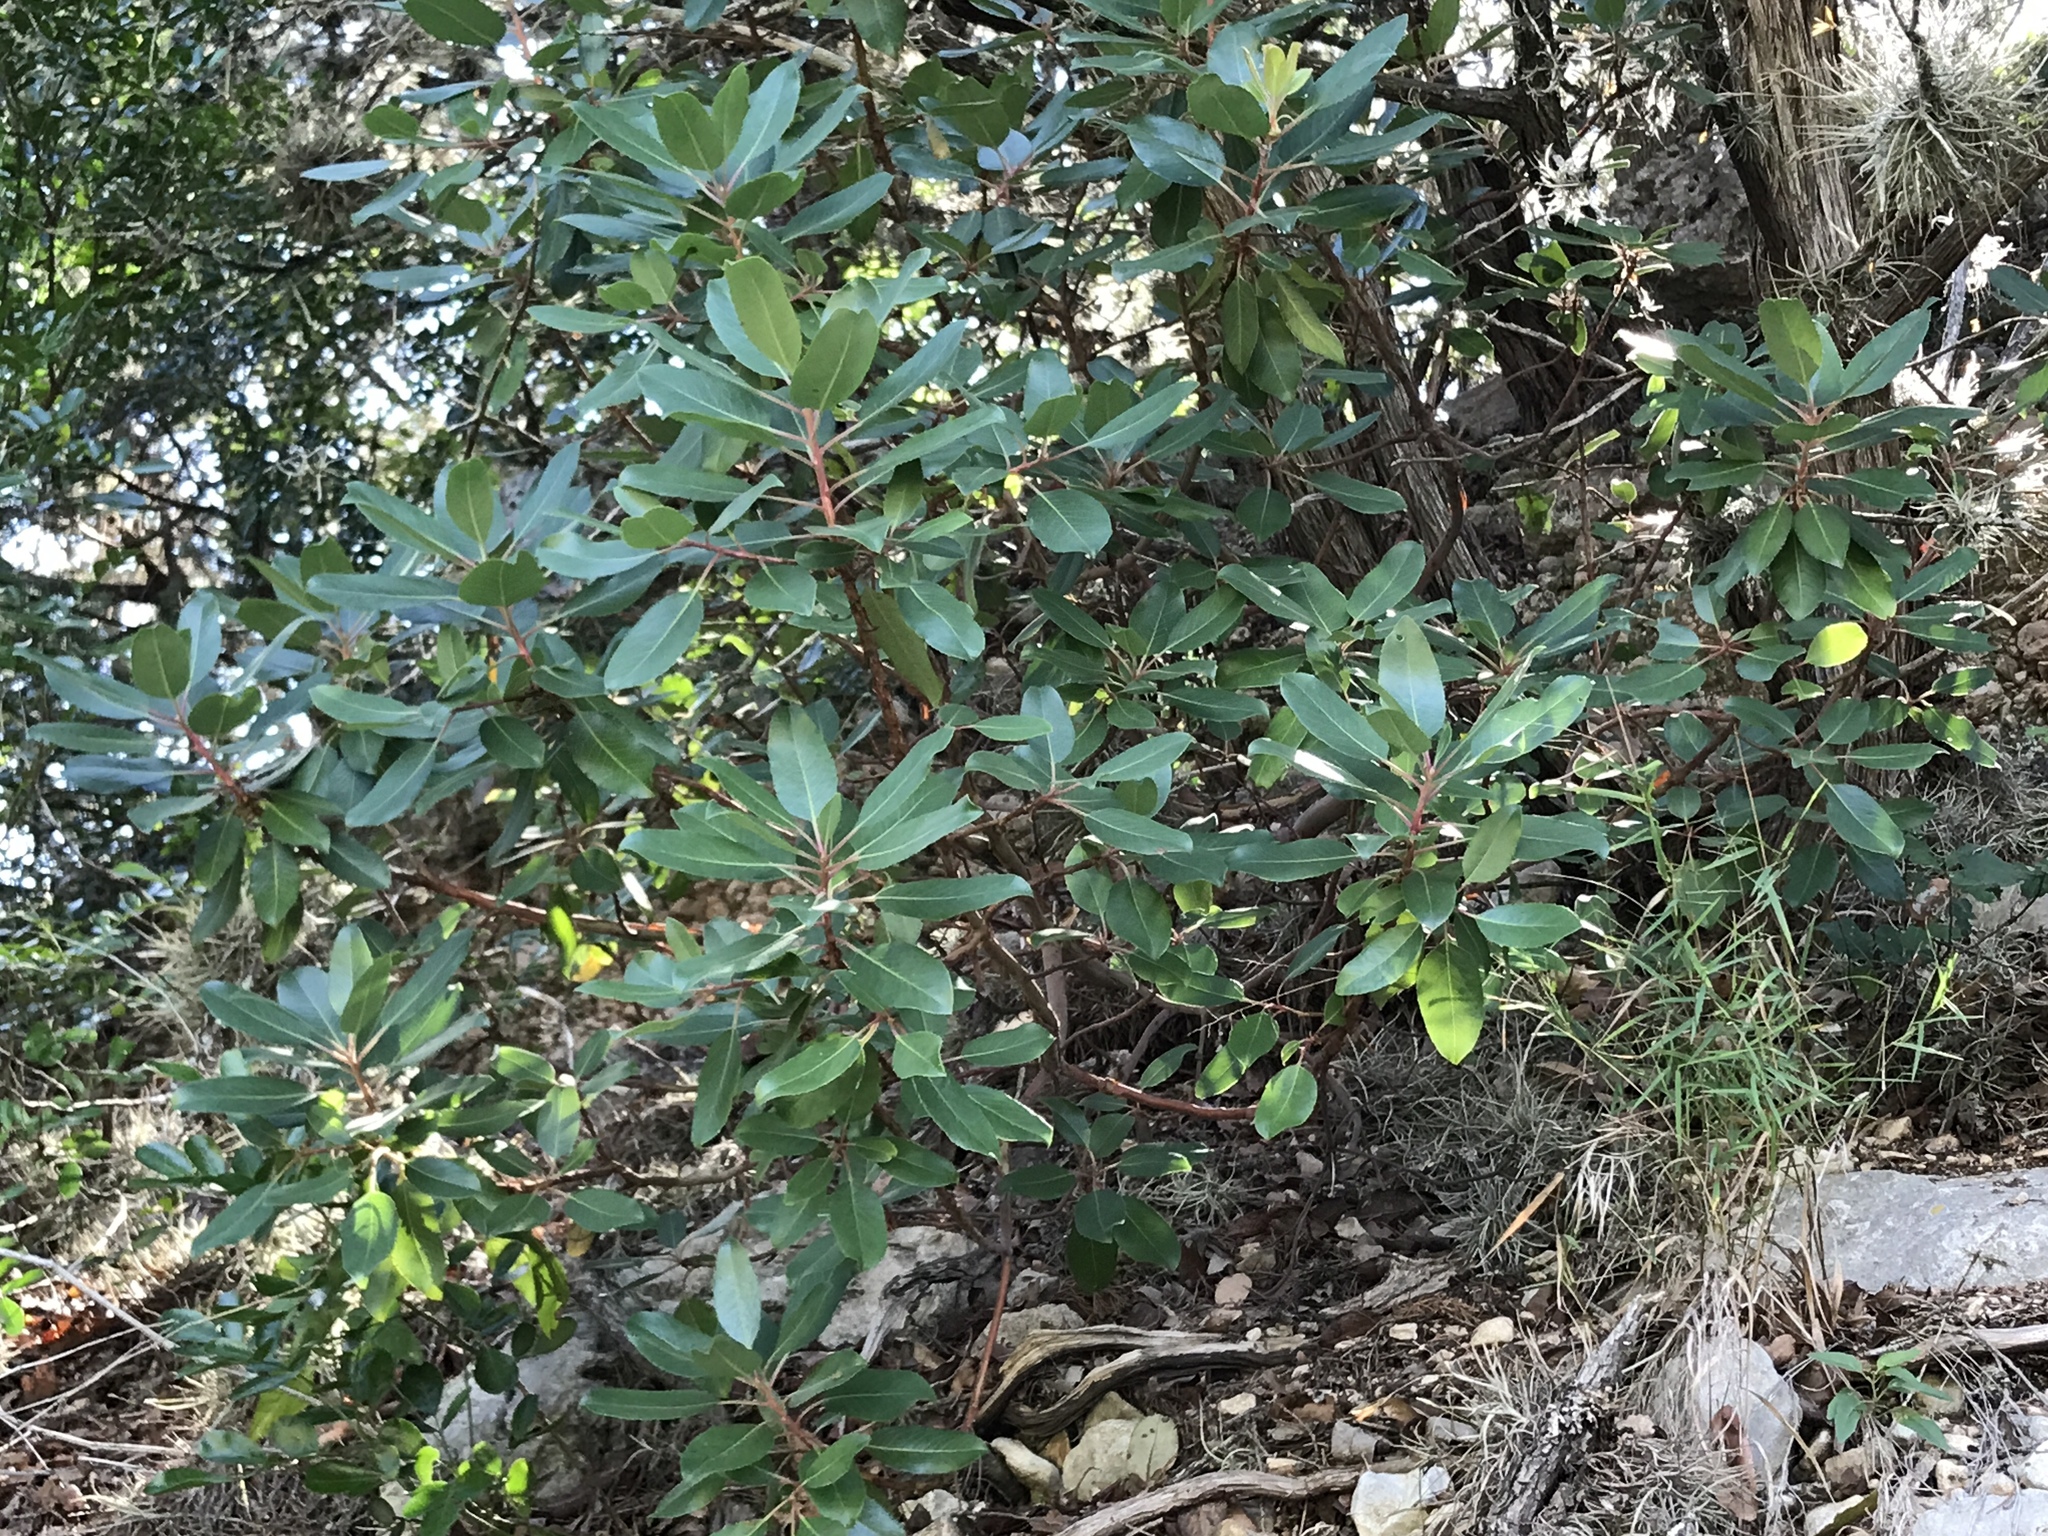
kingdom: Plantae
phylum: Tracheophyta
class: Magnoliopsida
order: Ericales
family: Ericaceae
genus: Arbutus
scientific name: Arbutus xalapensis
